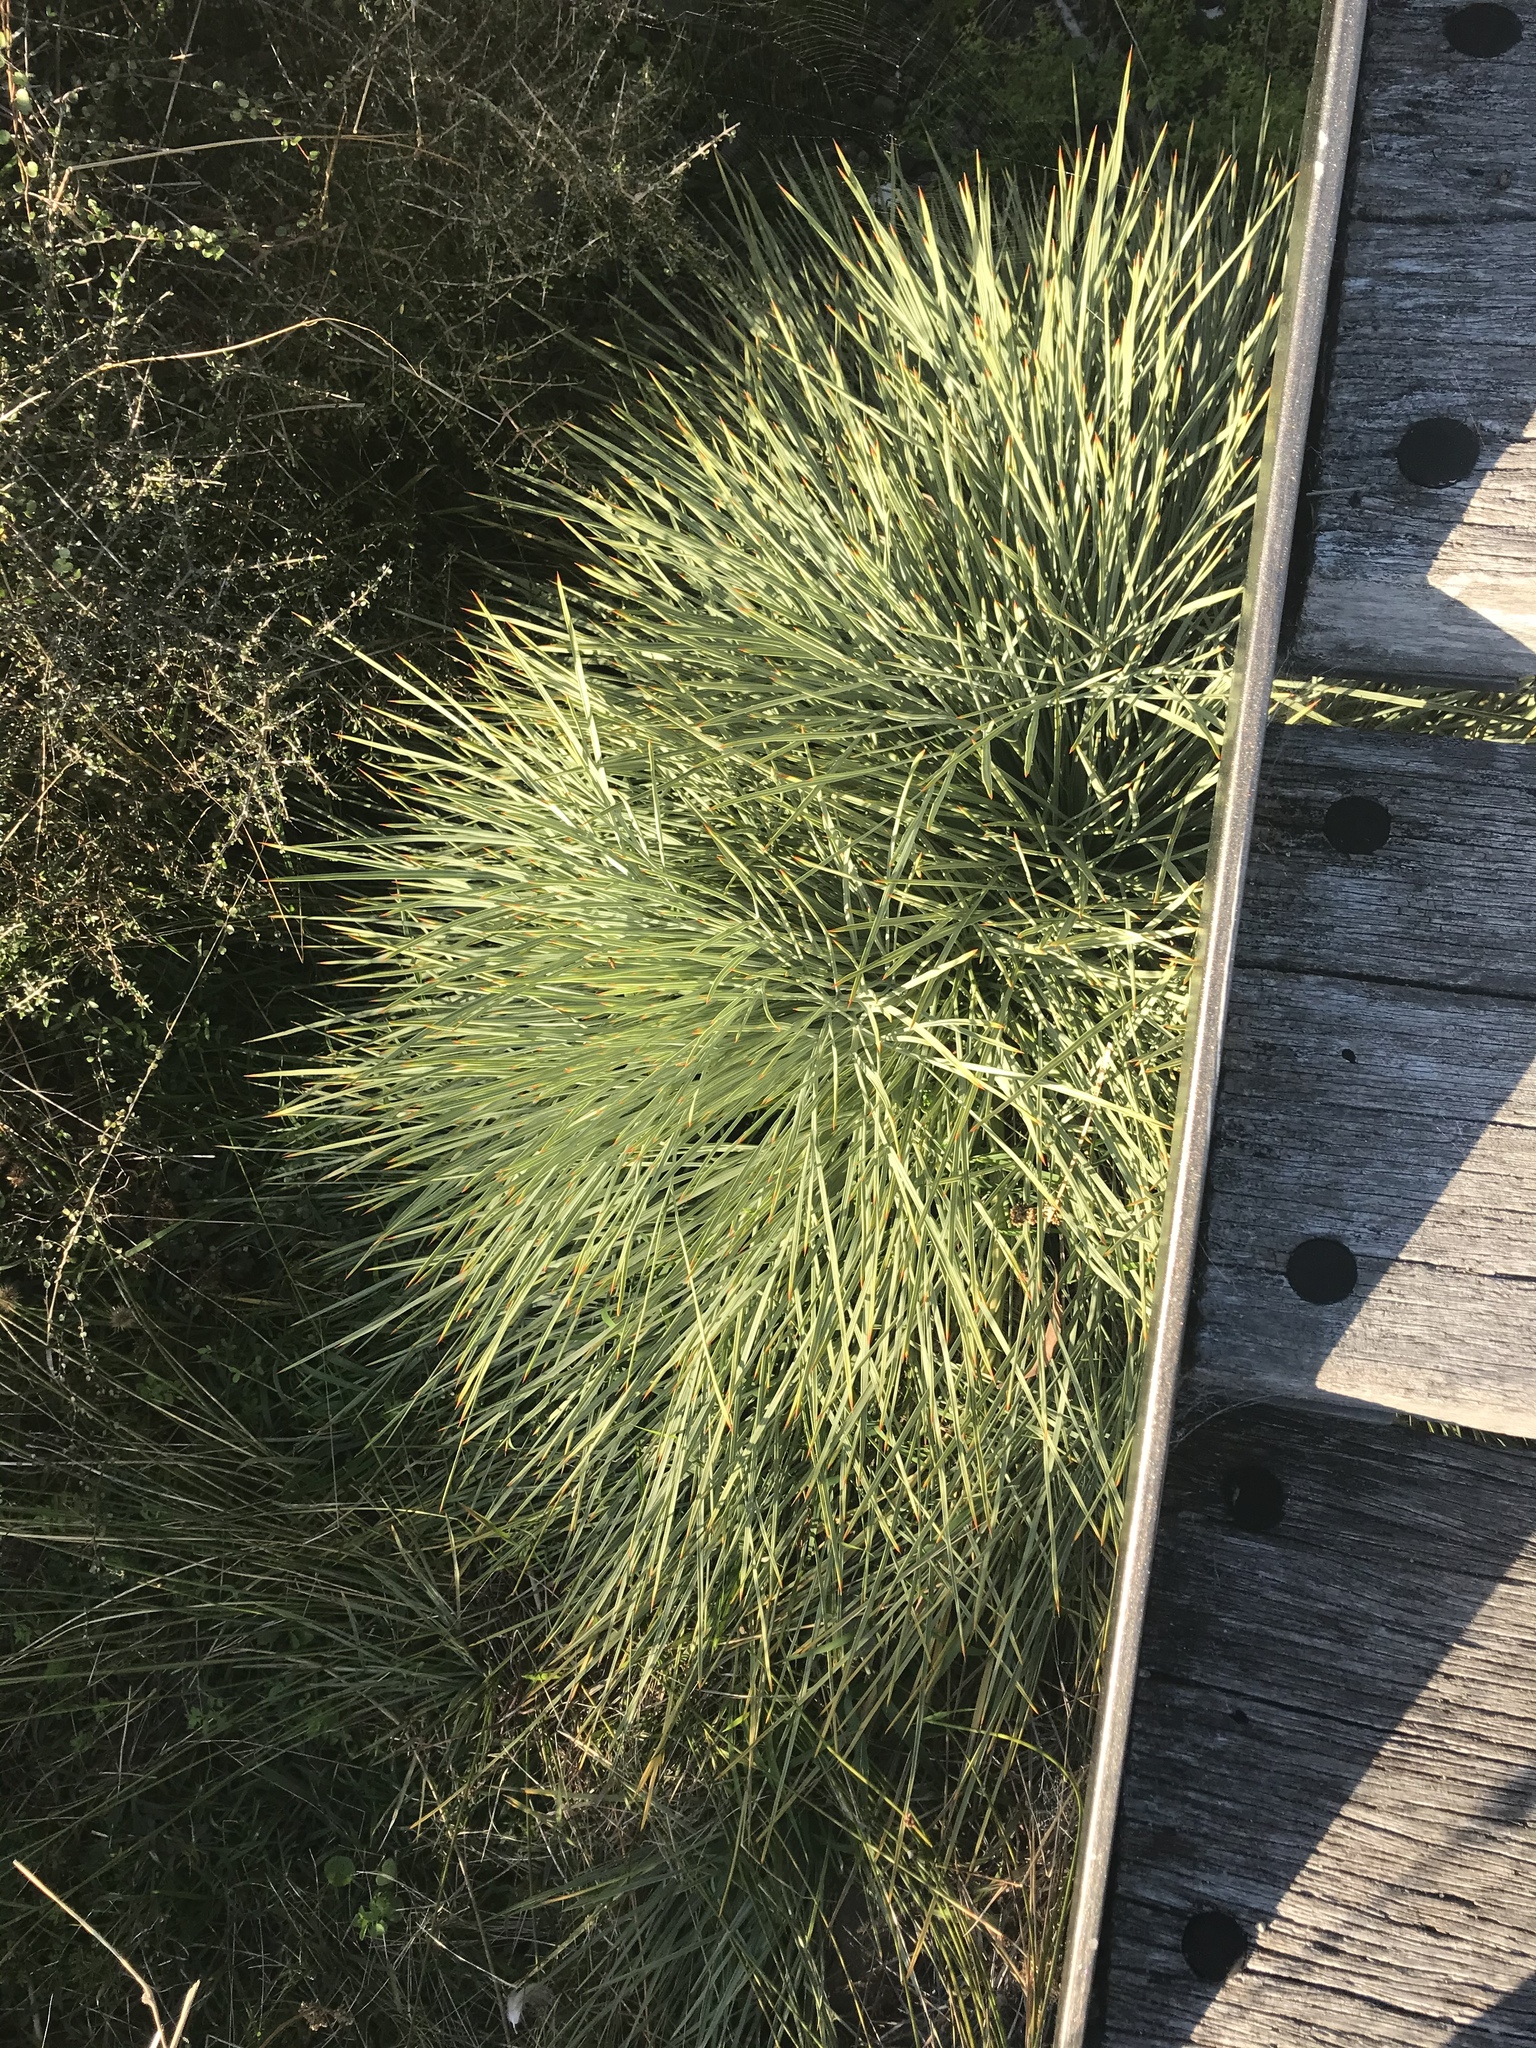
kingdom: Plantae
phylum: Tracheophyta
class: Magnoliopsida
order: Apiales
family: Apiaceae
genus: Aciphylla
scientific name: Aciphylla squarrosa
